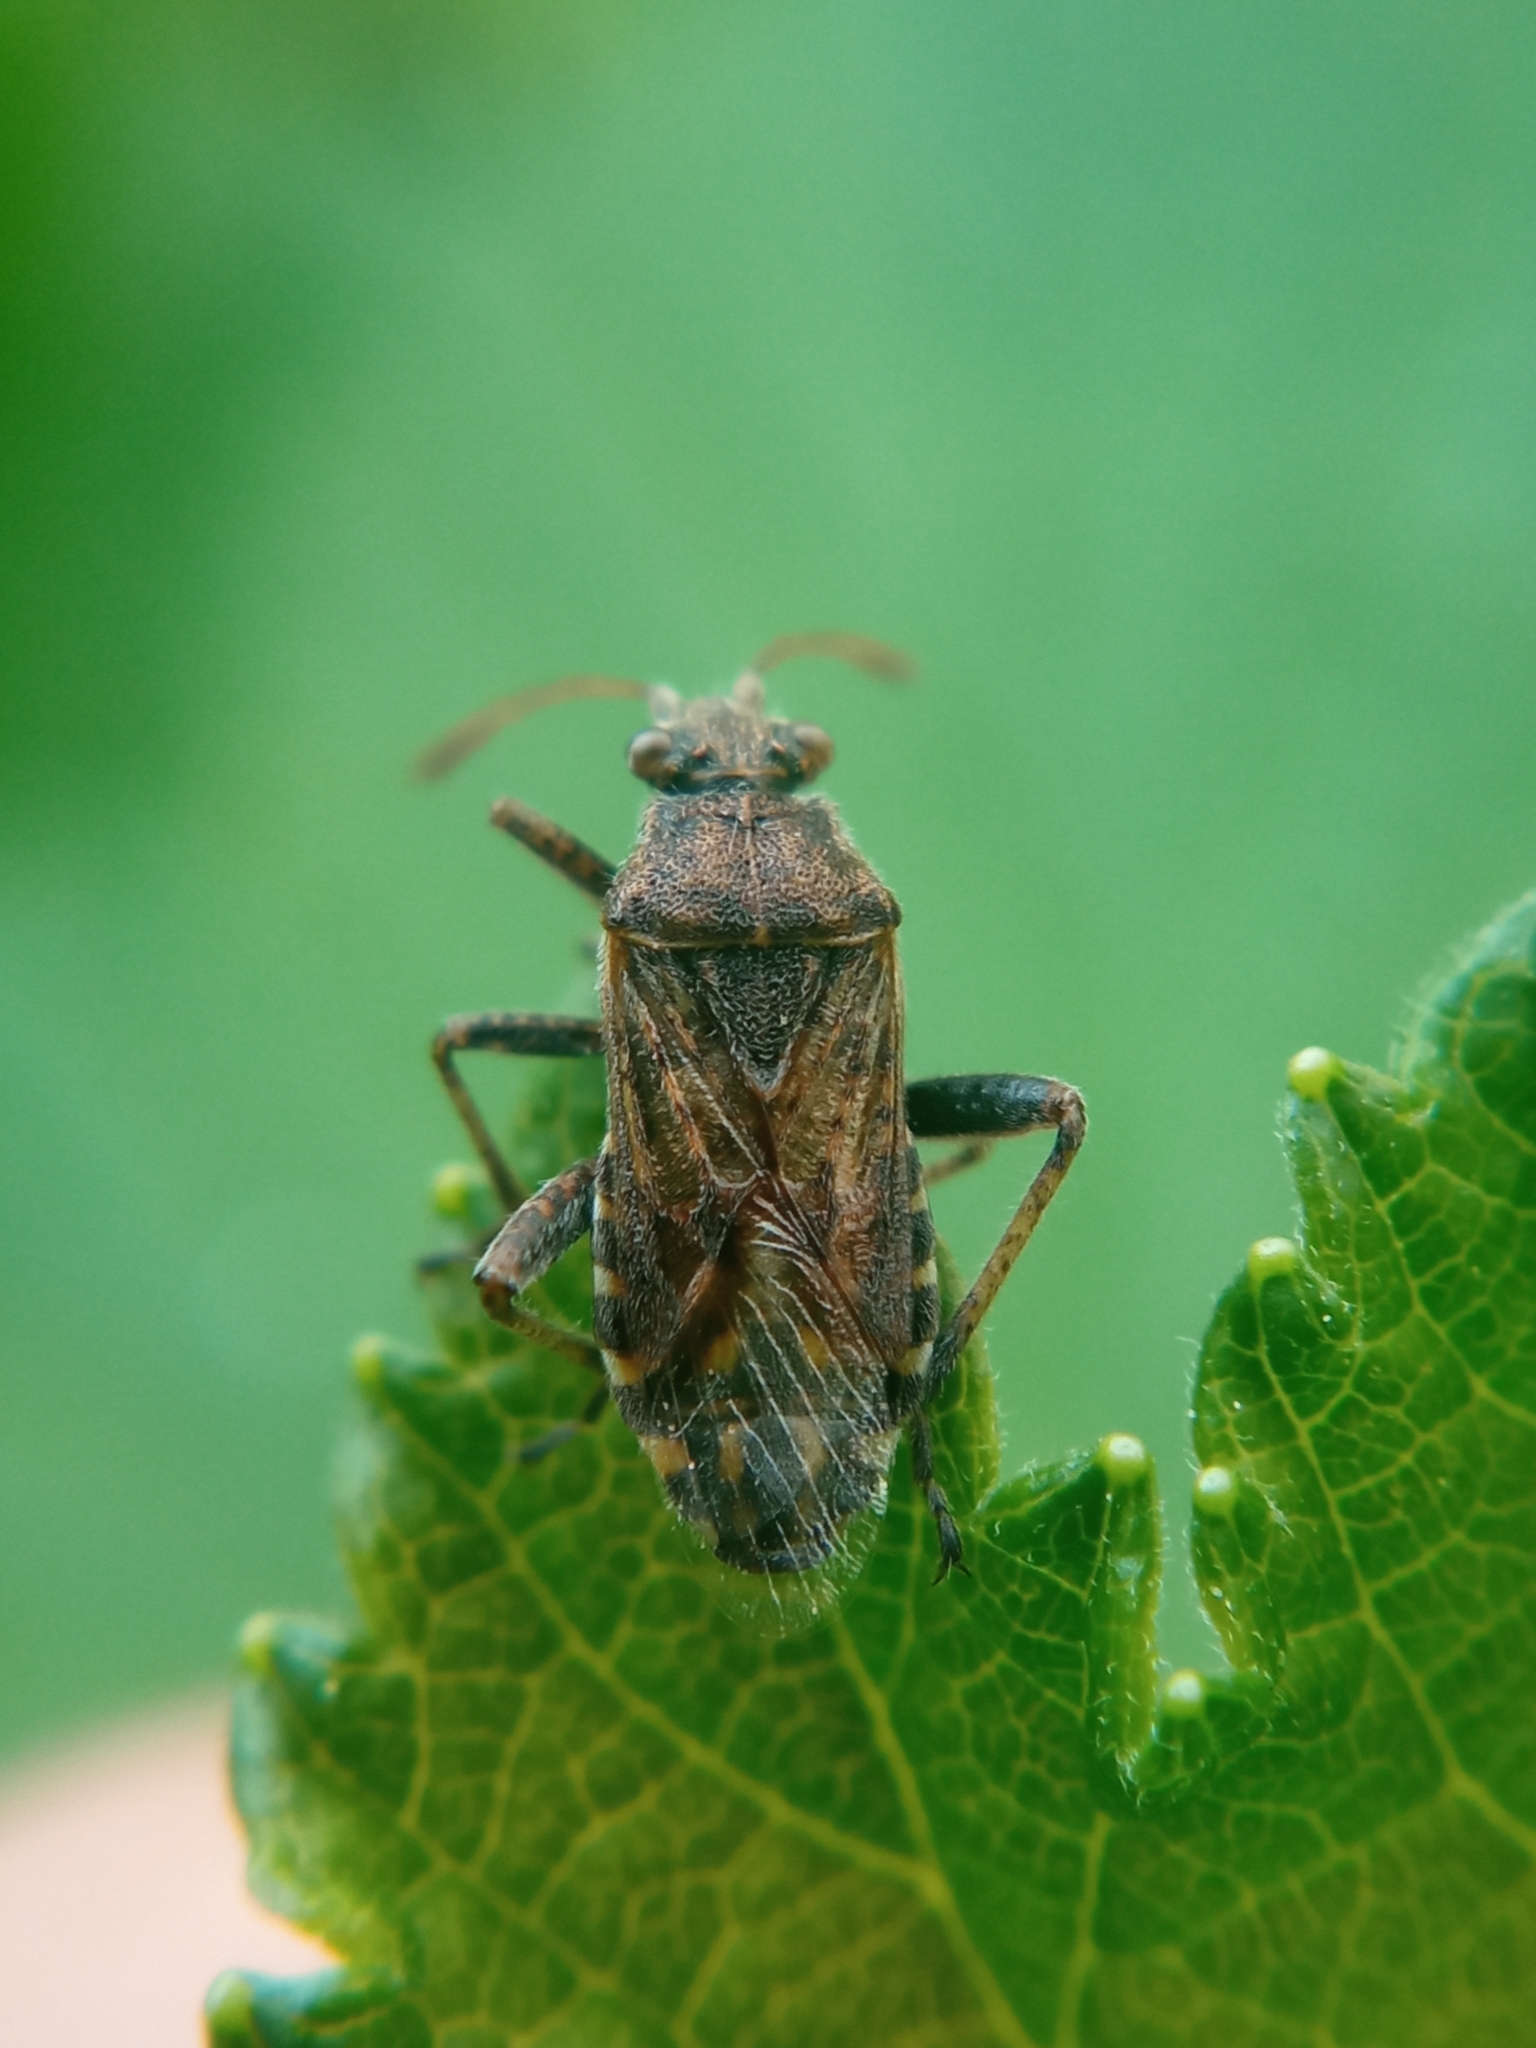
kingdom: Animalia
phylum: Arthropoda
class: Insecta
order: Hemiptera
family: Rhopalidae
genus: Stictopleurus
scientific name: Stictopleurus punctatonervosus
